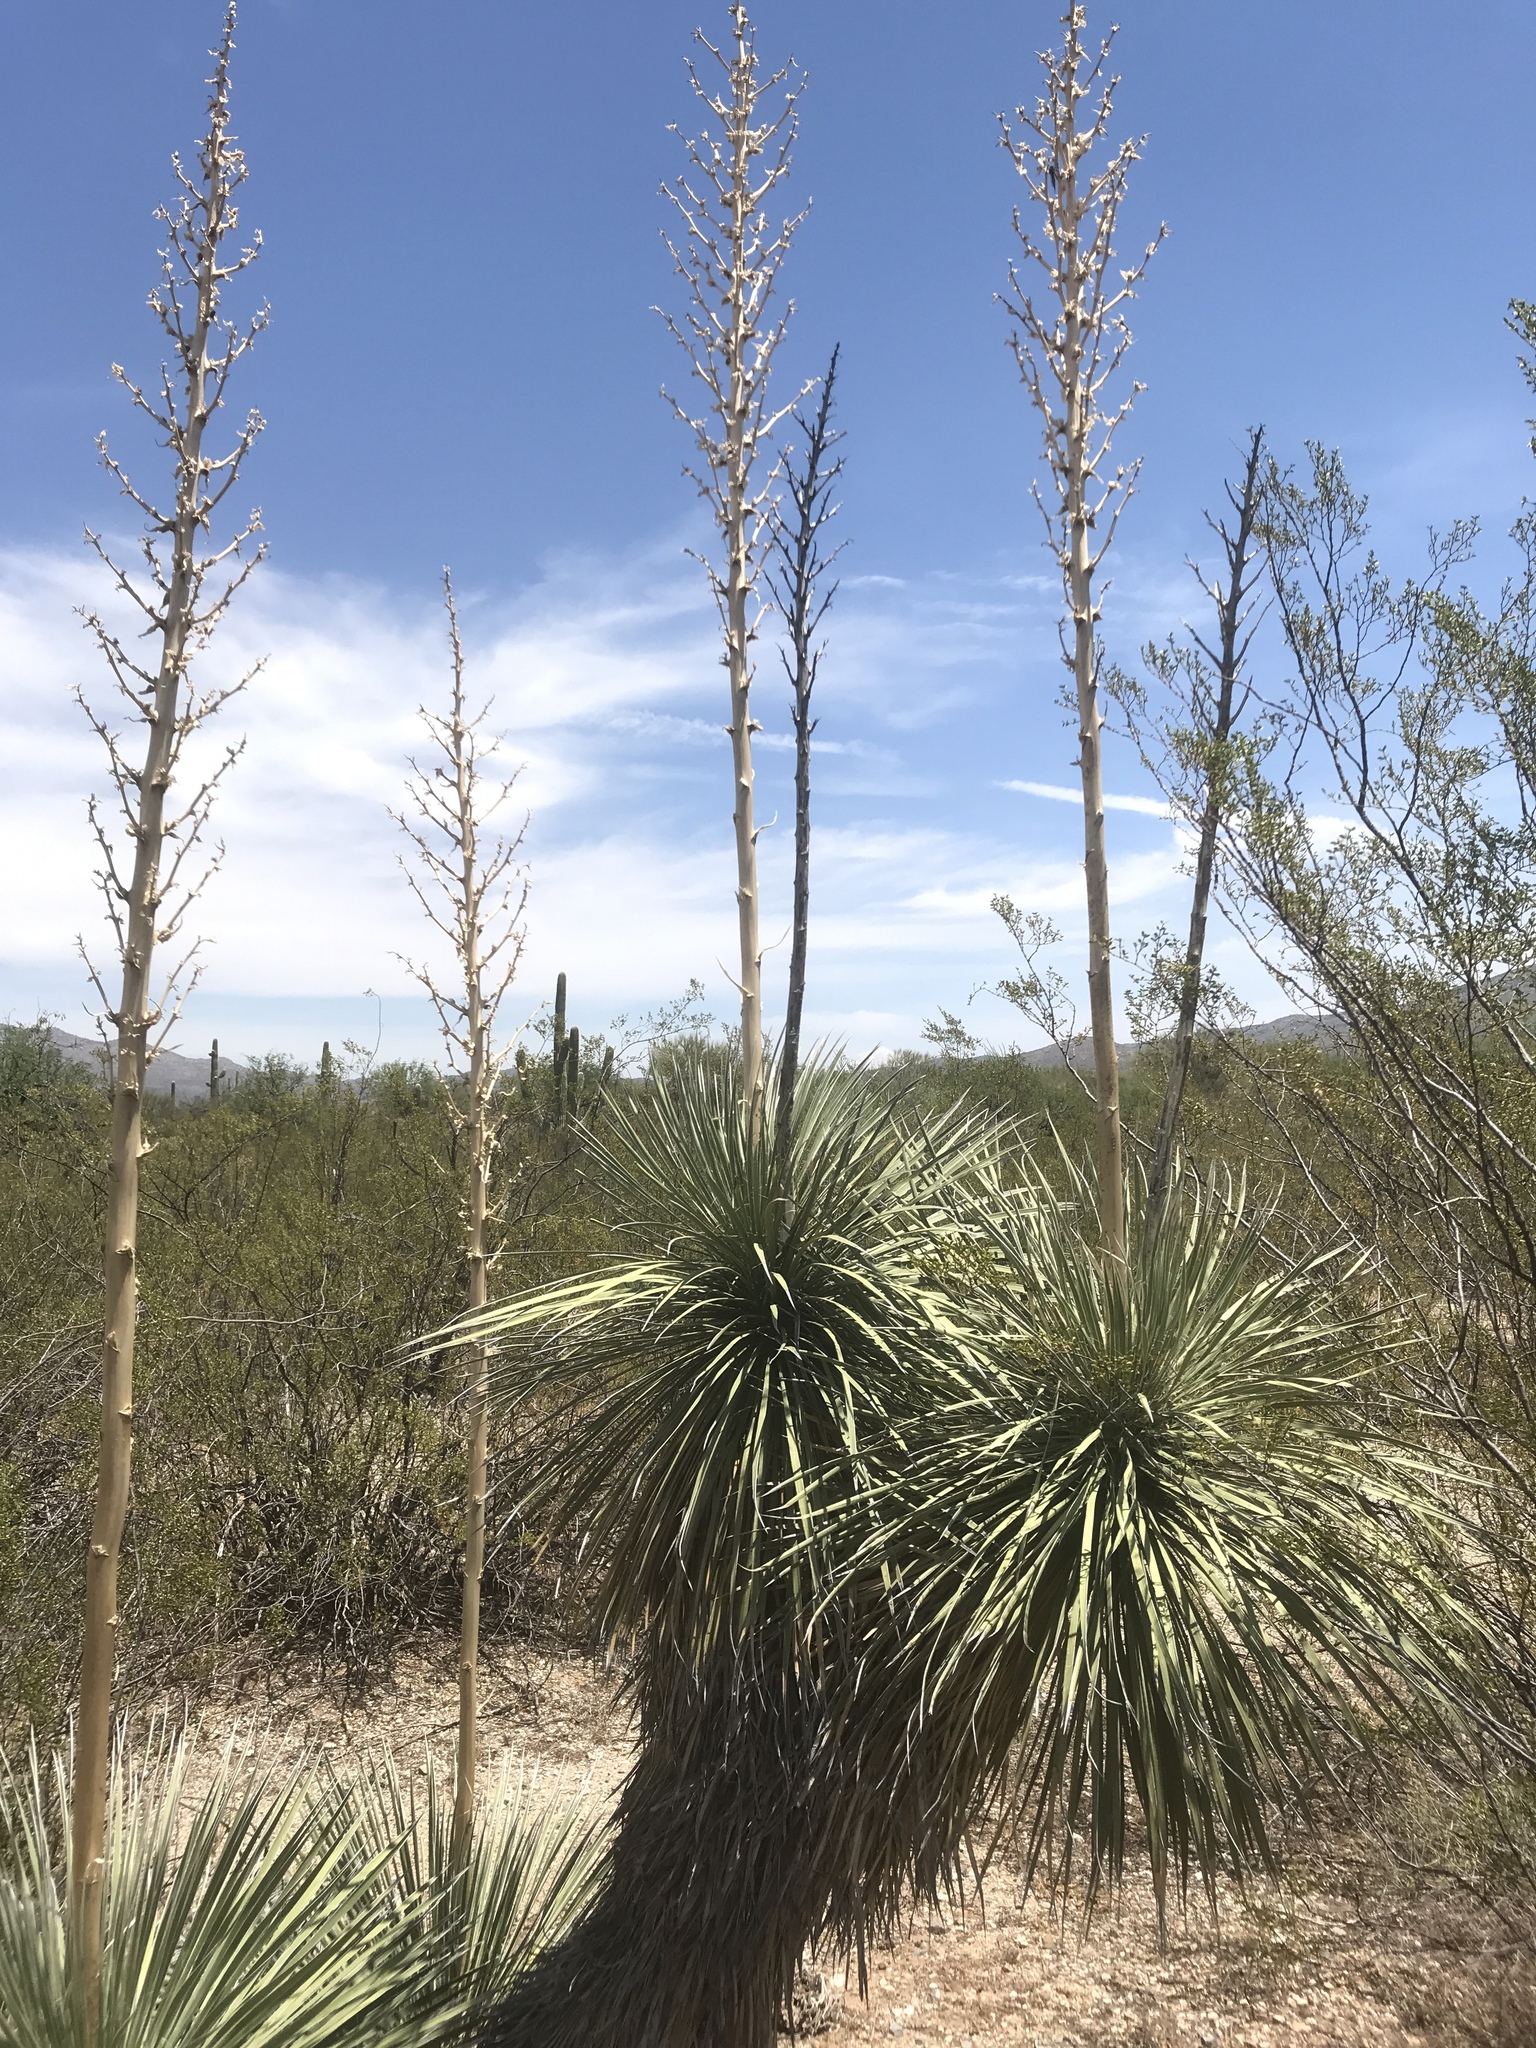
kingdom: Plantae
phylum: Tracheophyta
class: Liliopsida
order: Asparagales
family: Asparagaceae
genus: Yucca
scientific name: Yucca elata
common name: Palmella
